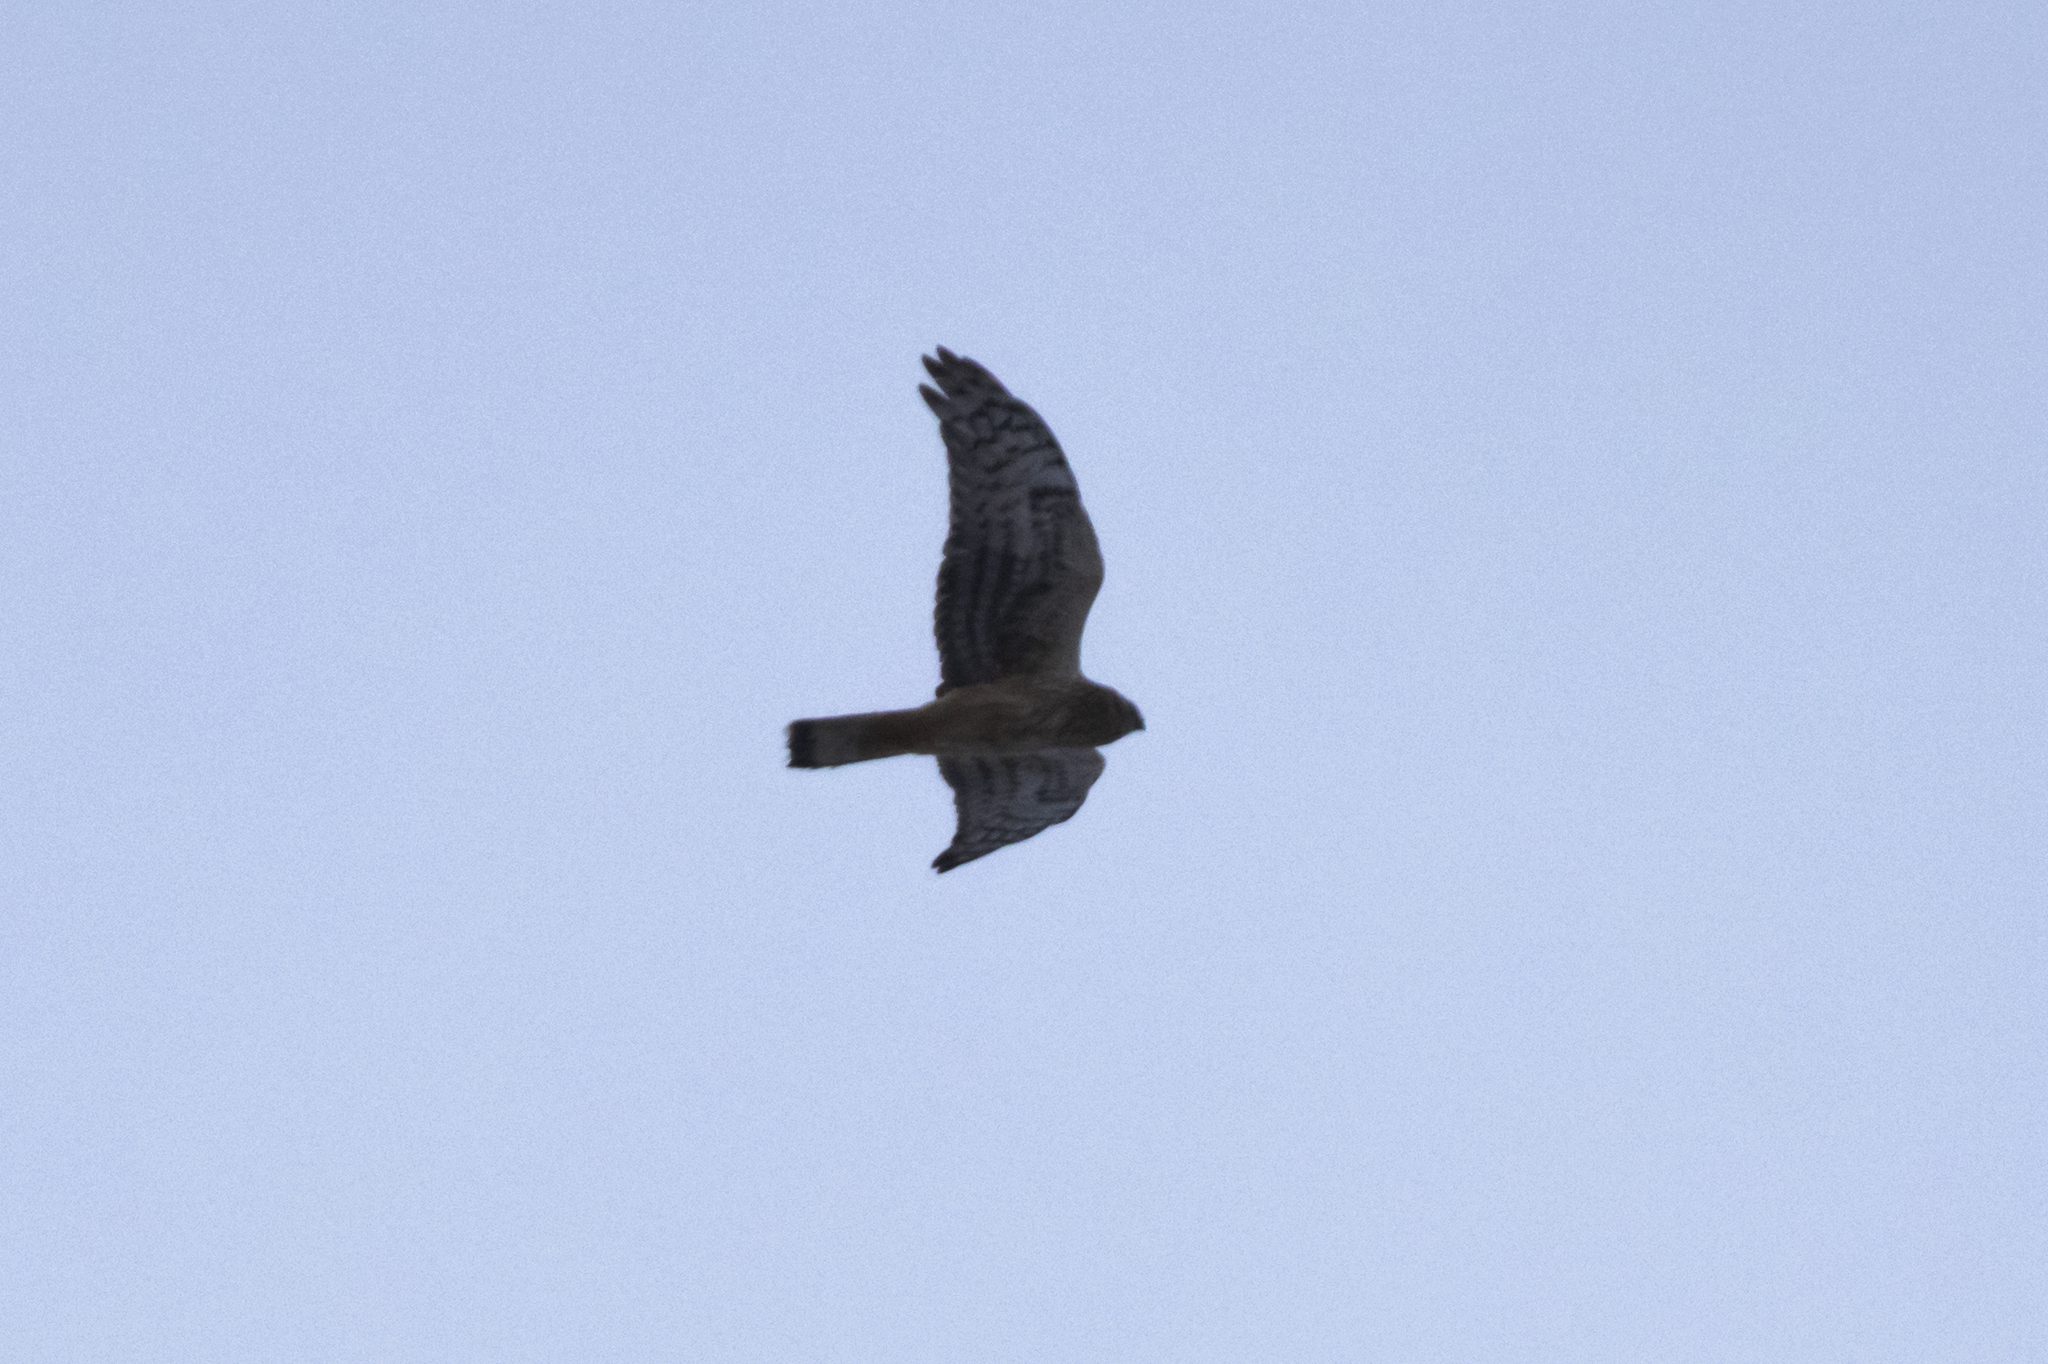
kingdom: Animalia
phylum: Chordata
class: Aves
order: Accipitriformes
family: Accipitridae
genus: Circus
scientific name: Circus cyaneus
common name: Hen harrier
